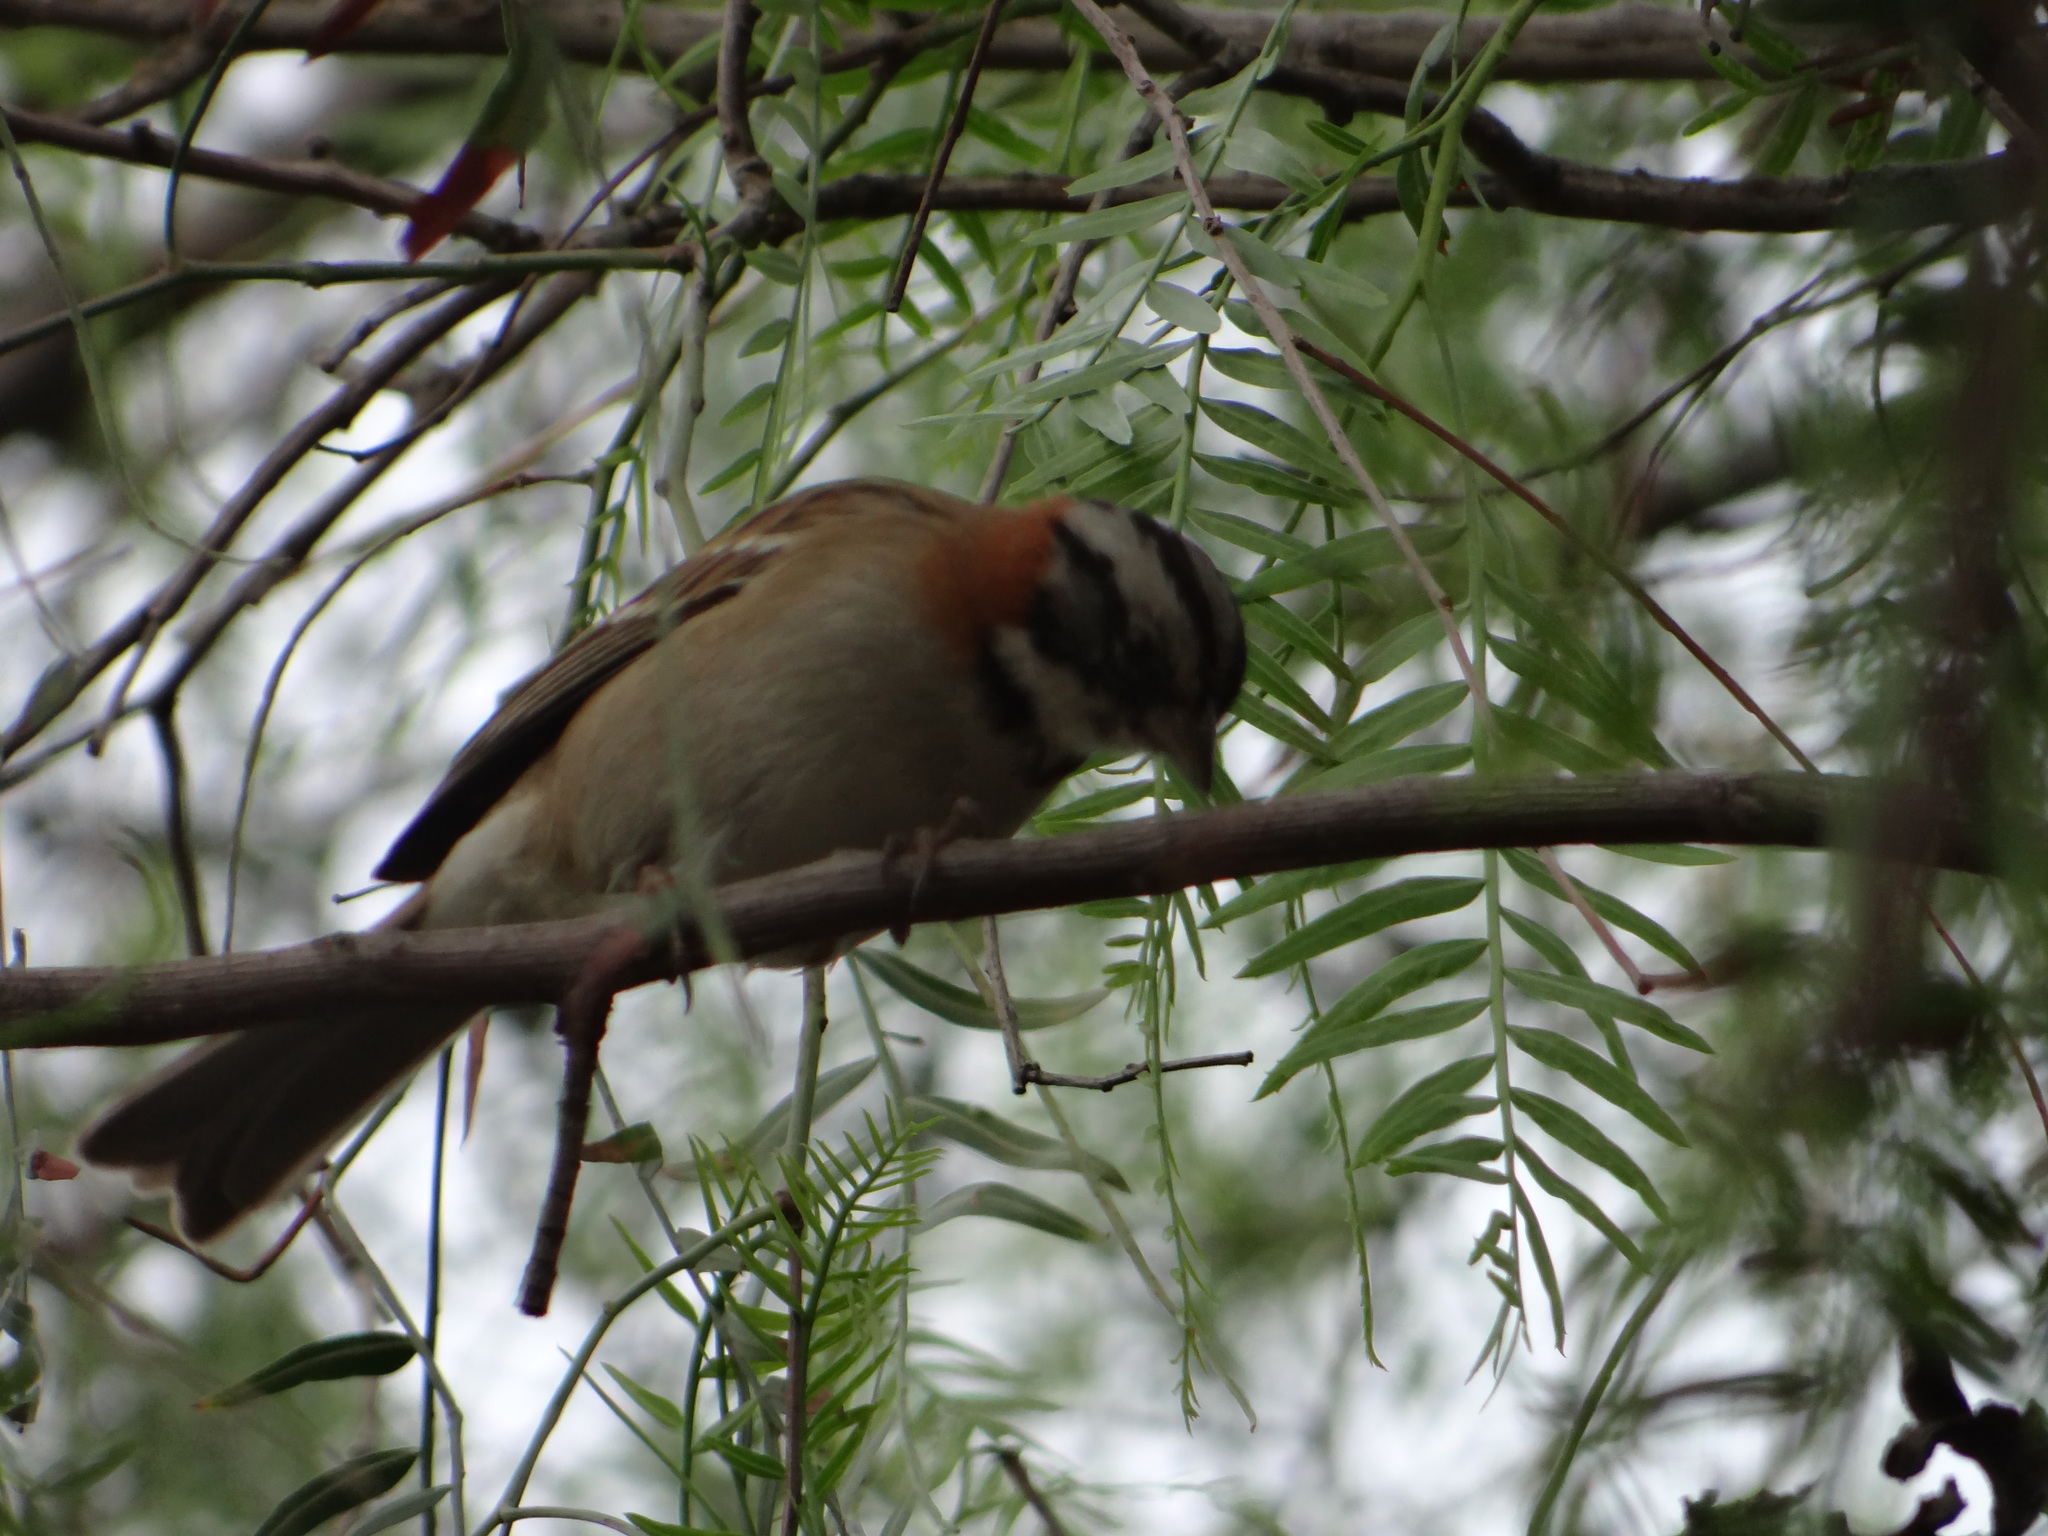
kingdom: Animalia
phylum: Chordata
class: Aves
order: Passeriformes
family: Passerellidae
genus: Zonotrichia
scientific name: Zonotrichia capensis
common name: Rufous-collared sparrow
